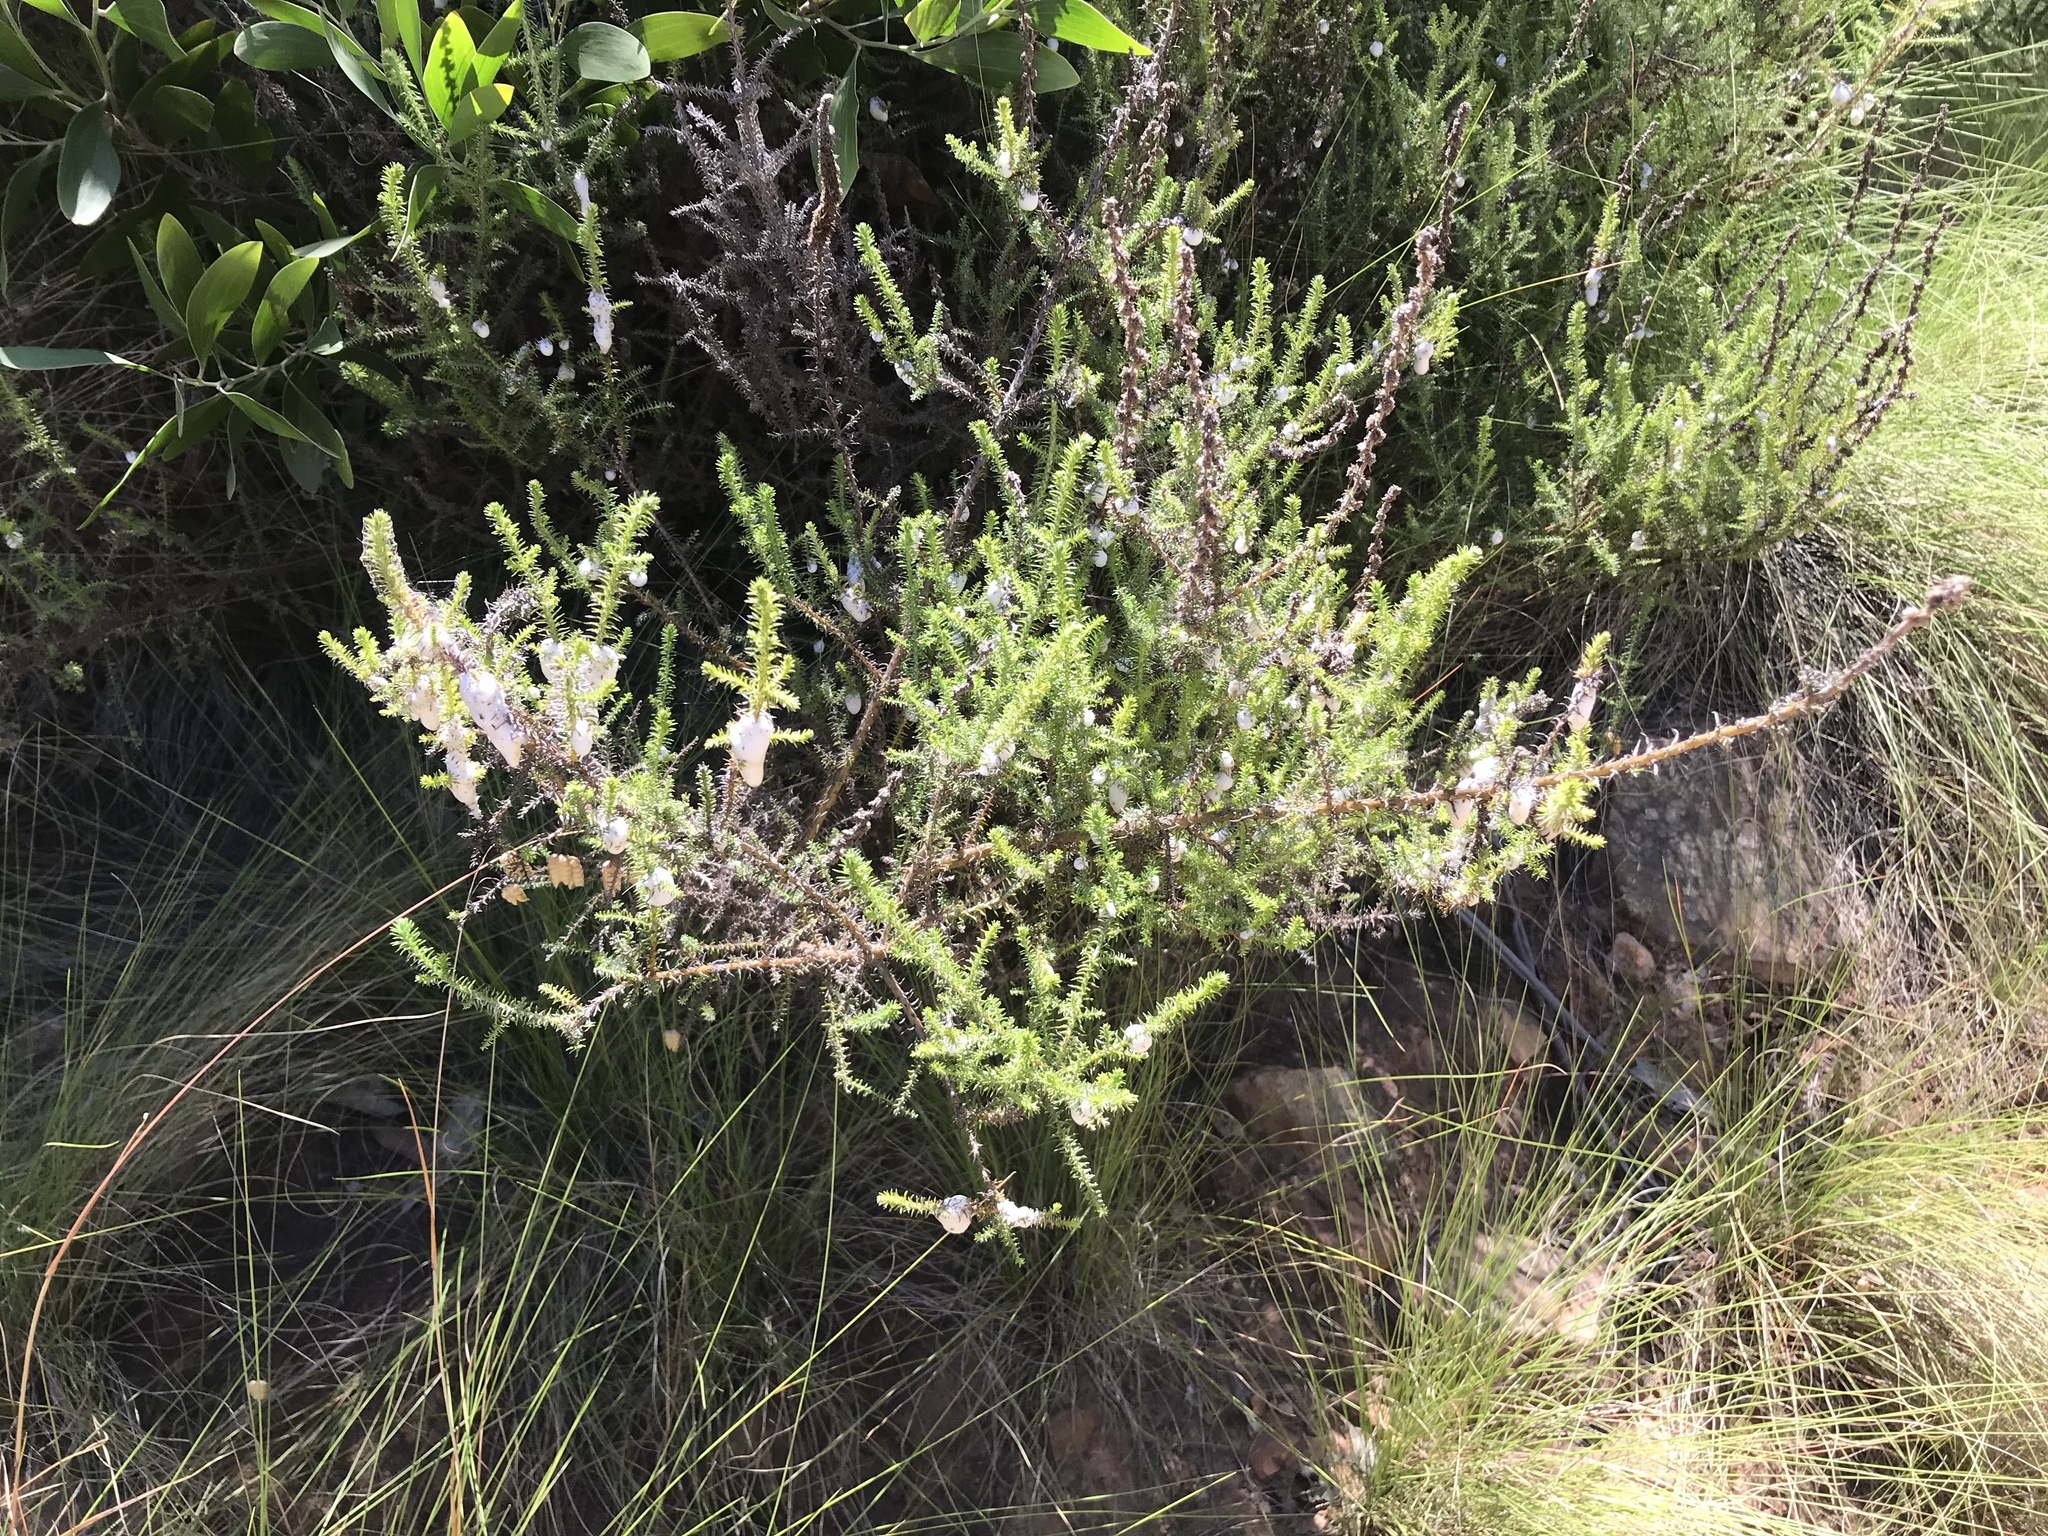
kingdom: Plantae
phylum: Tracheophyta
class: Magnoliopsida
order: Asterales
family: Asteraceae
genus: Seriphium
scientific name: Seriphium cinereum
